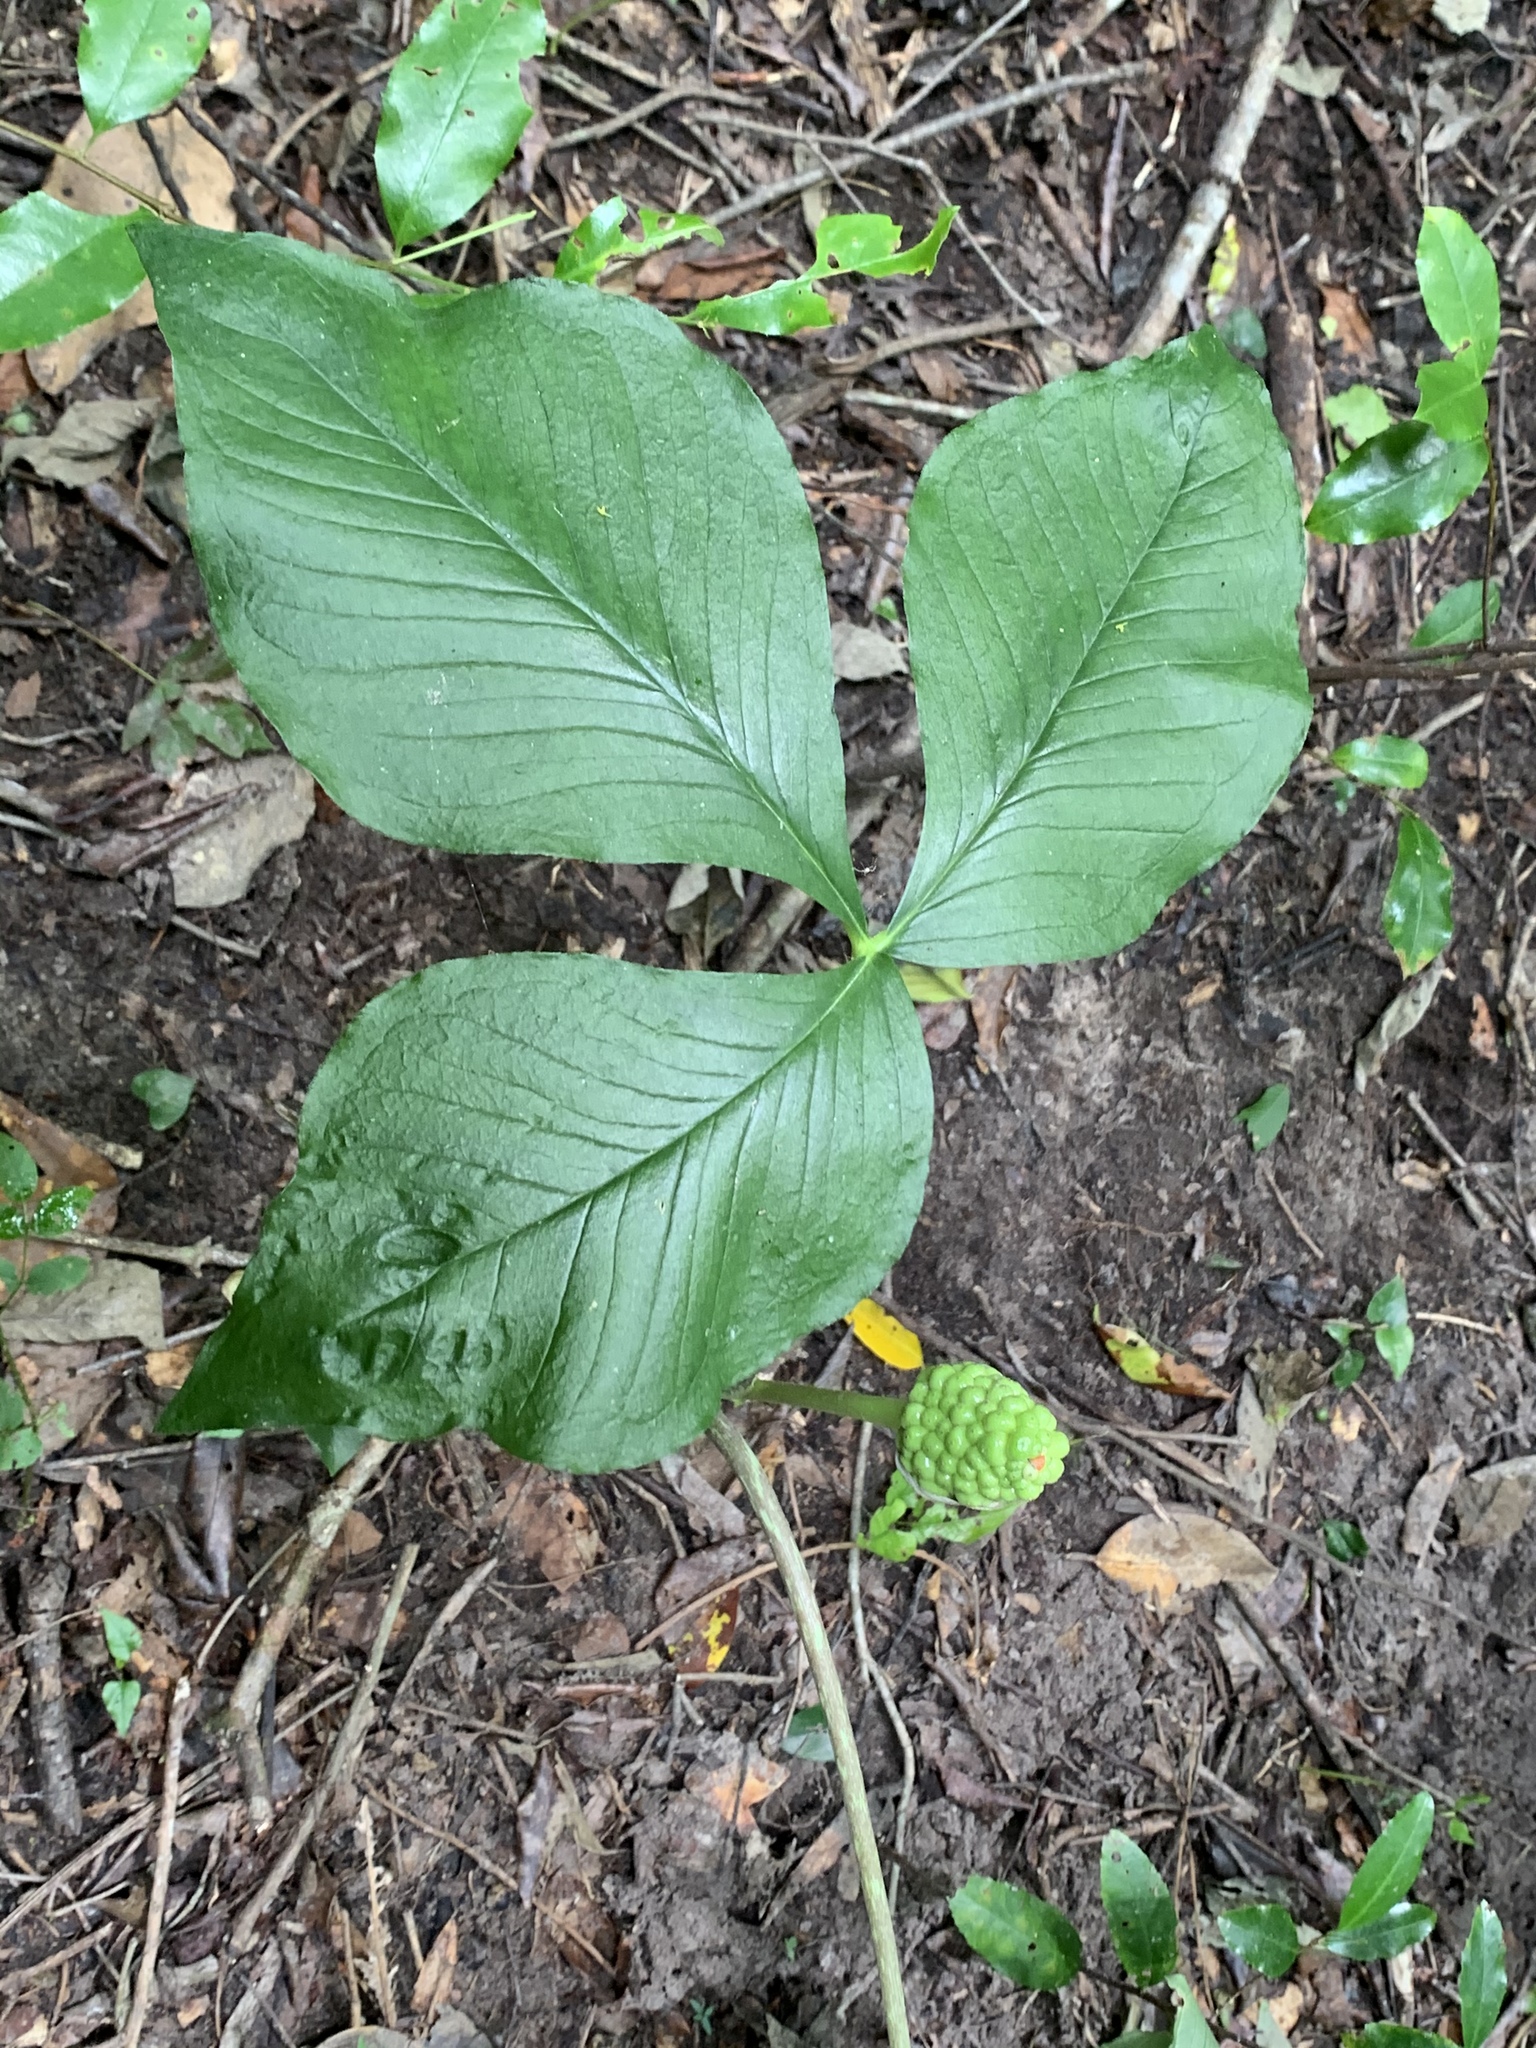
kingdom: Plantae
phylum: Tracheophyta
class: Liliopsida
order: Alismatales
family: Araceae
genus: Arisaema
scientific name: Arisaema quinatum
